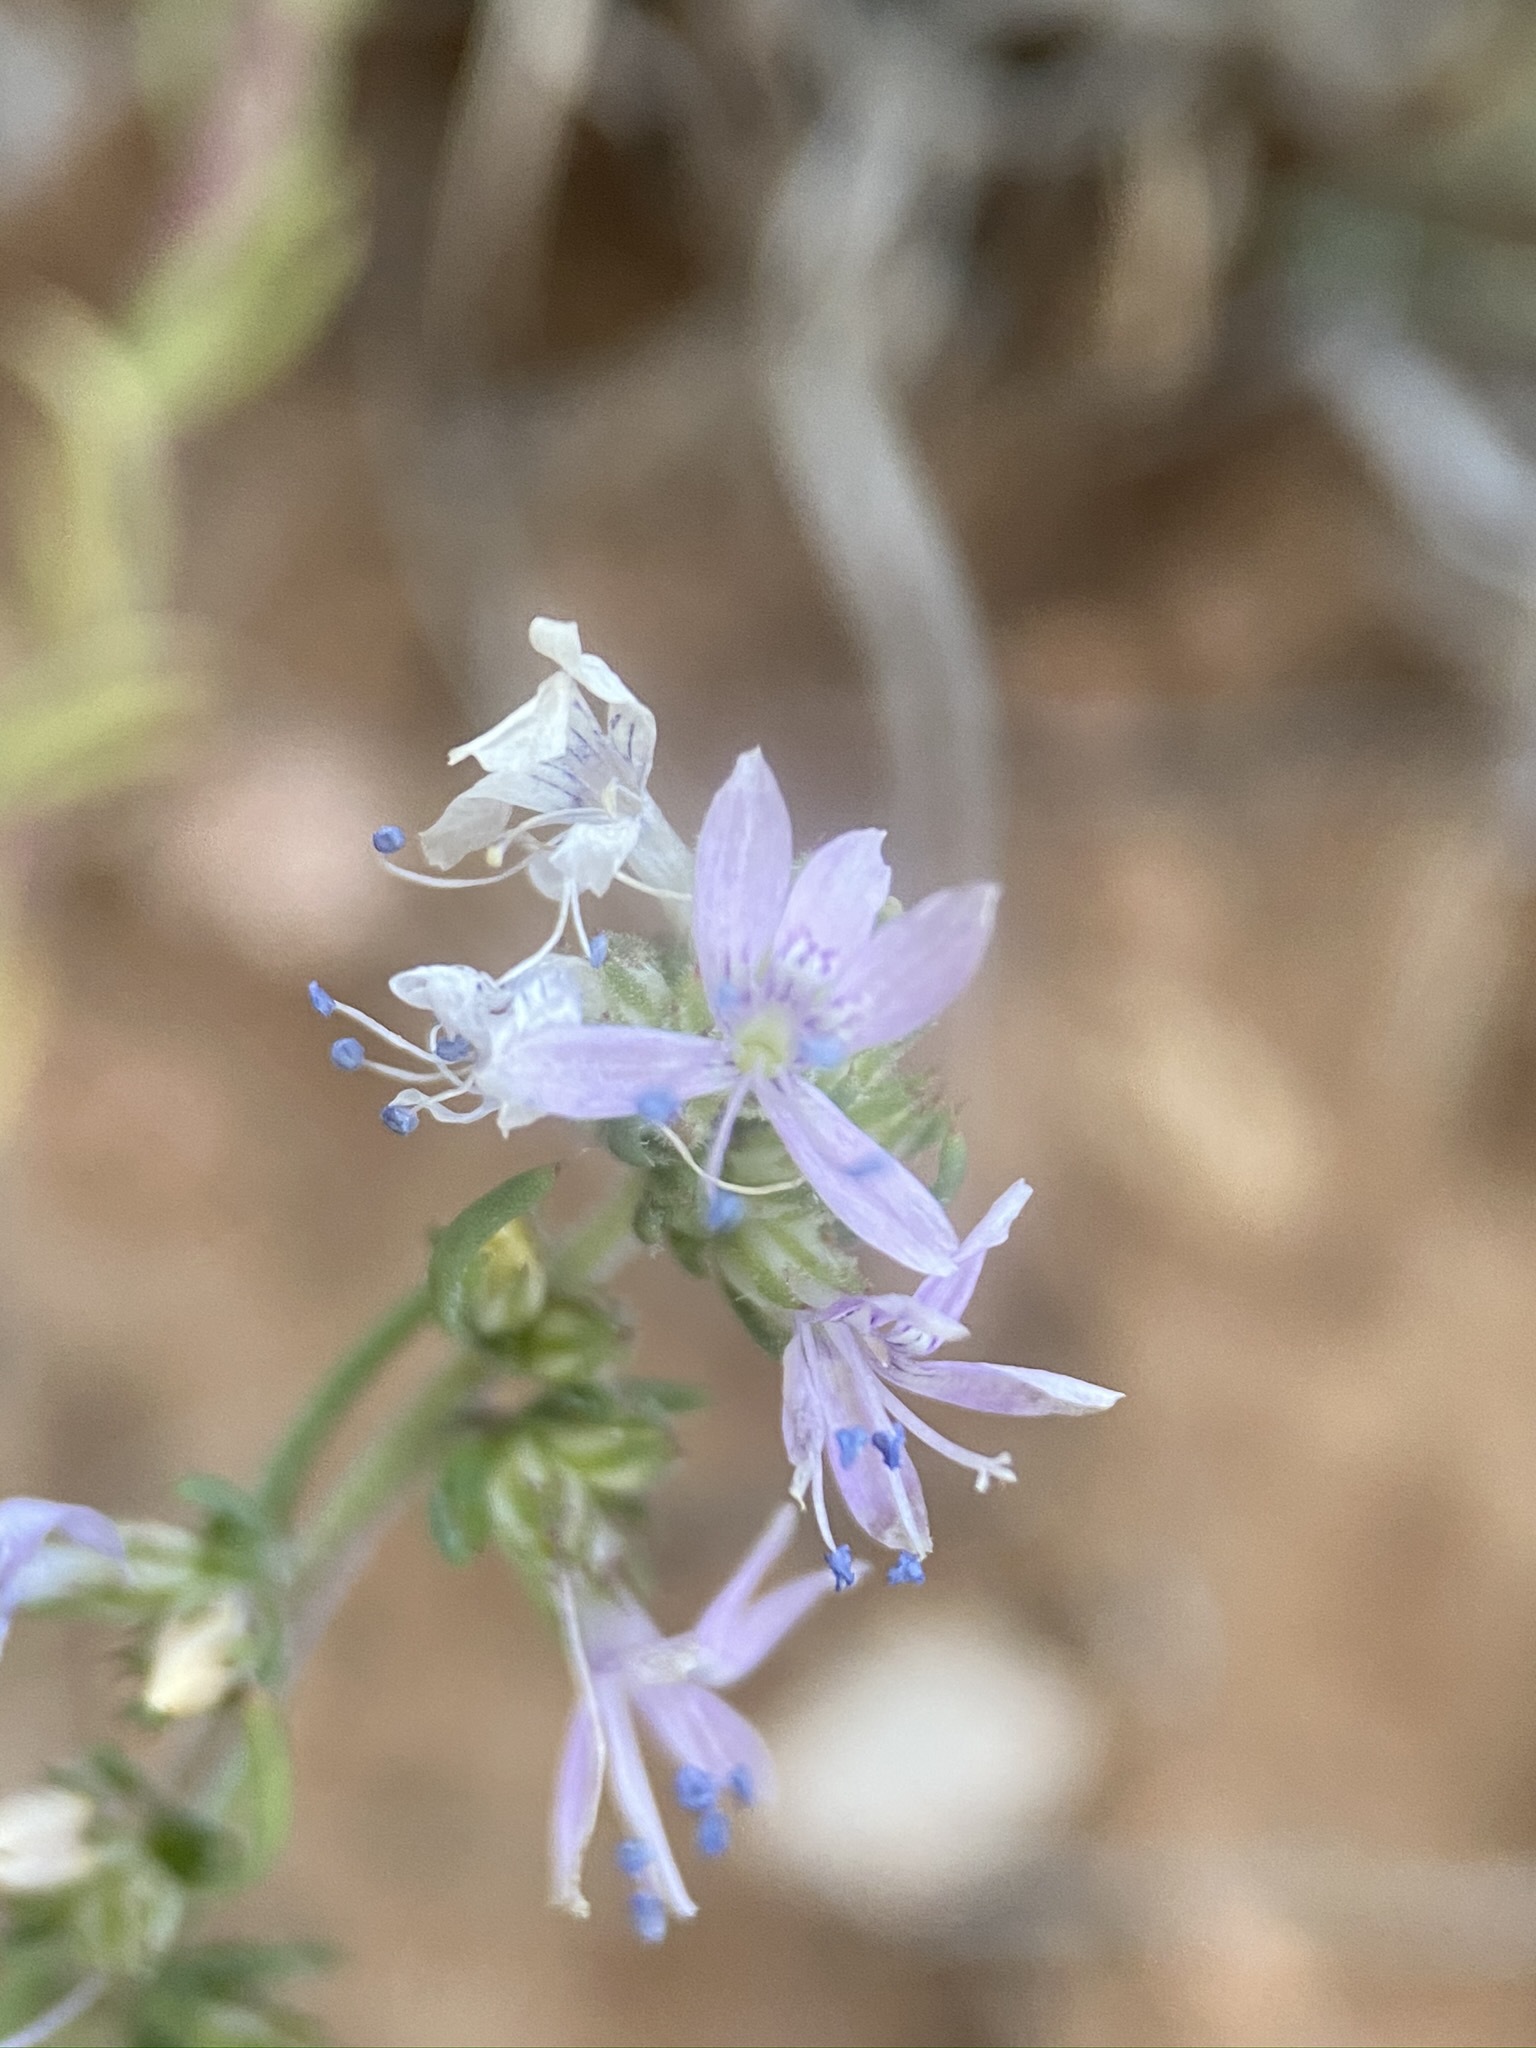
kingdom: Plantae
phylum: Tracheophyta
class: Magnoliopsida
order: Ericales
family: Polemoniaceae
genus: Ipomopsis
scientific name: Ipomopsis multiflora
